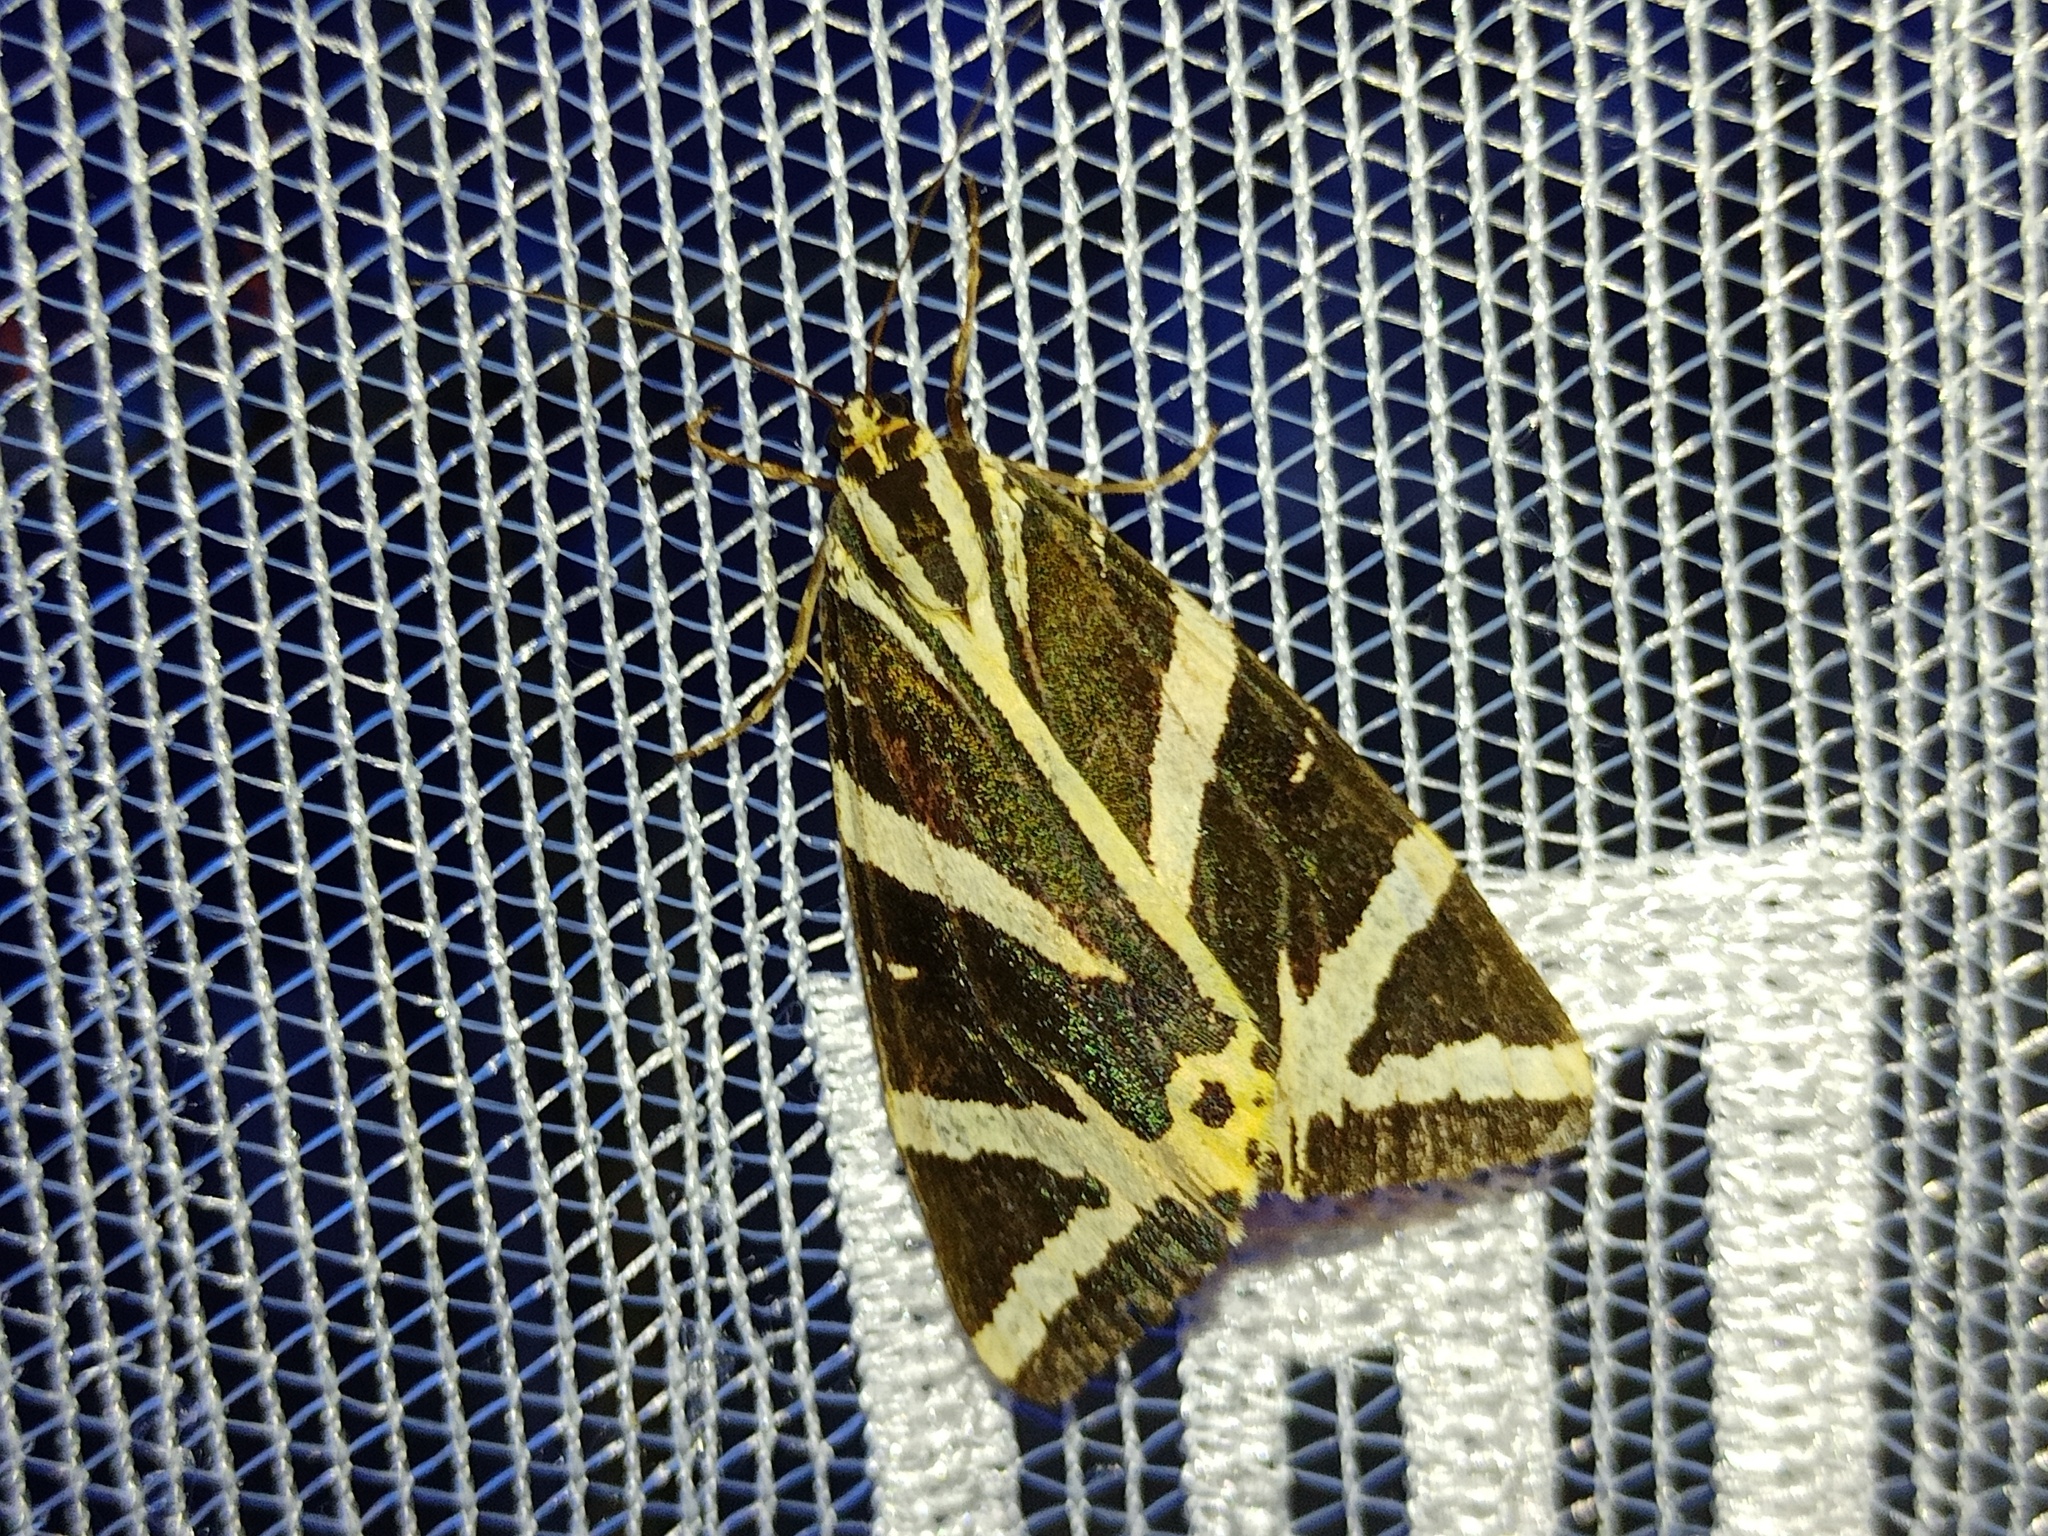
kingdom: Animalia
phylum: Arthropoda
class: Insecta
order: Lepidoptera
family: Erebidae
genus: Euplagia
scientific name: Euplagia quadripunctaria
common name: Jersey tiger
